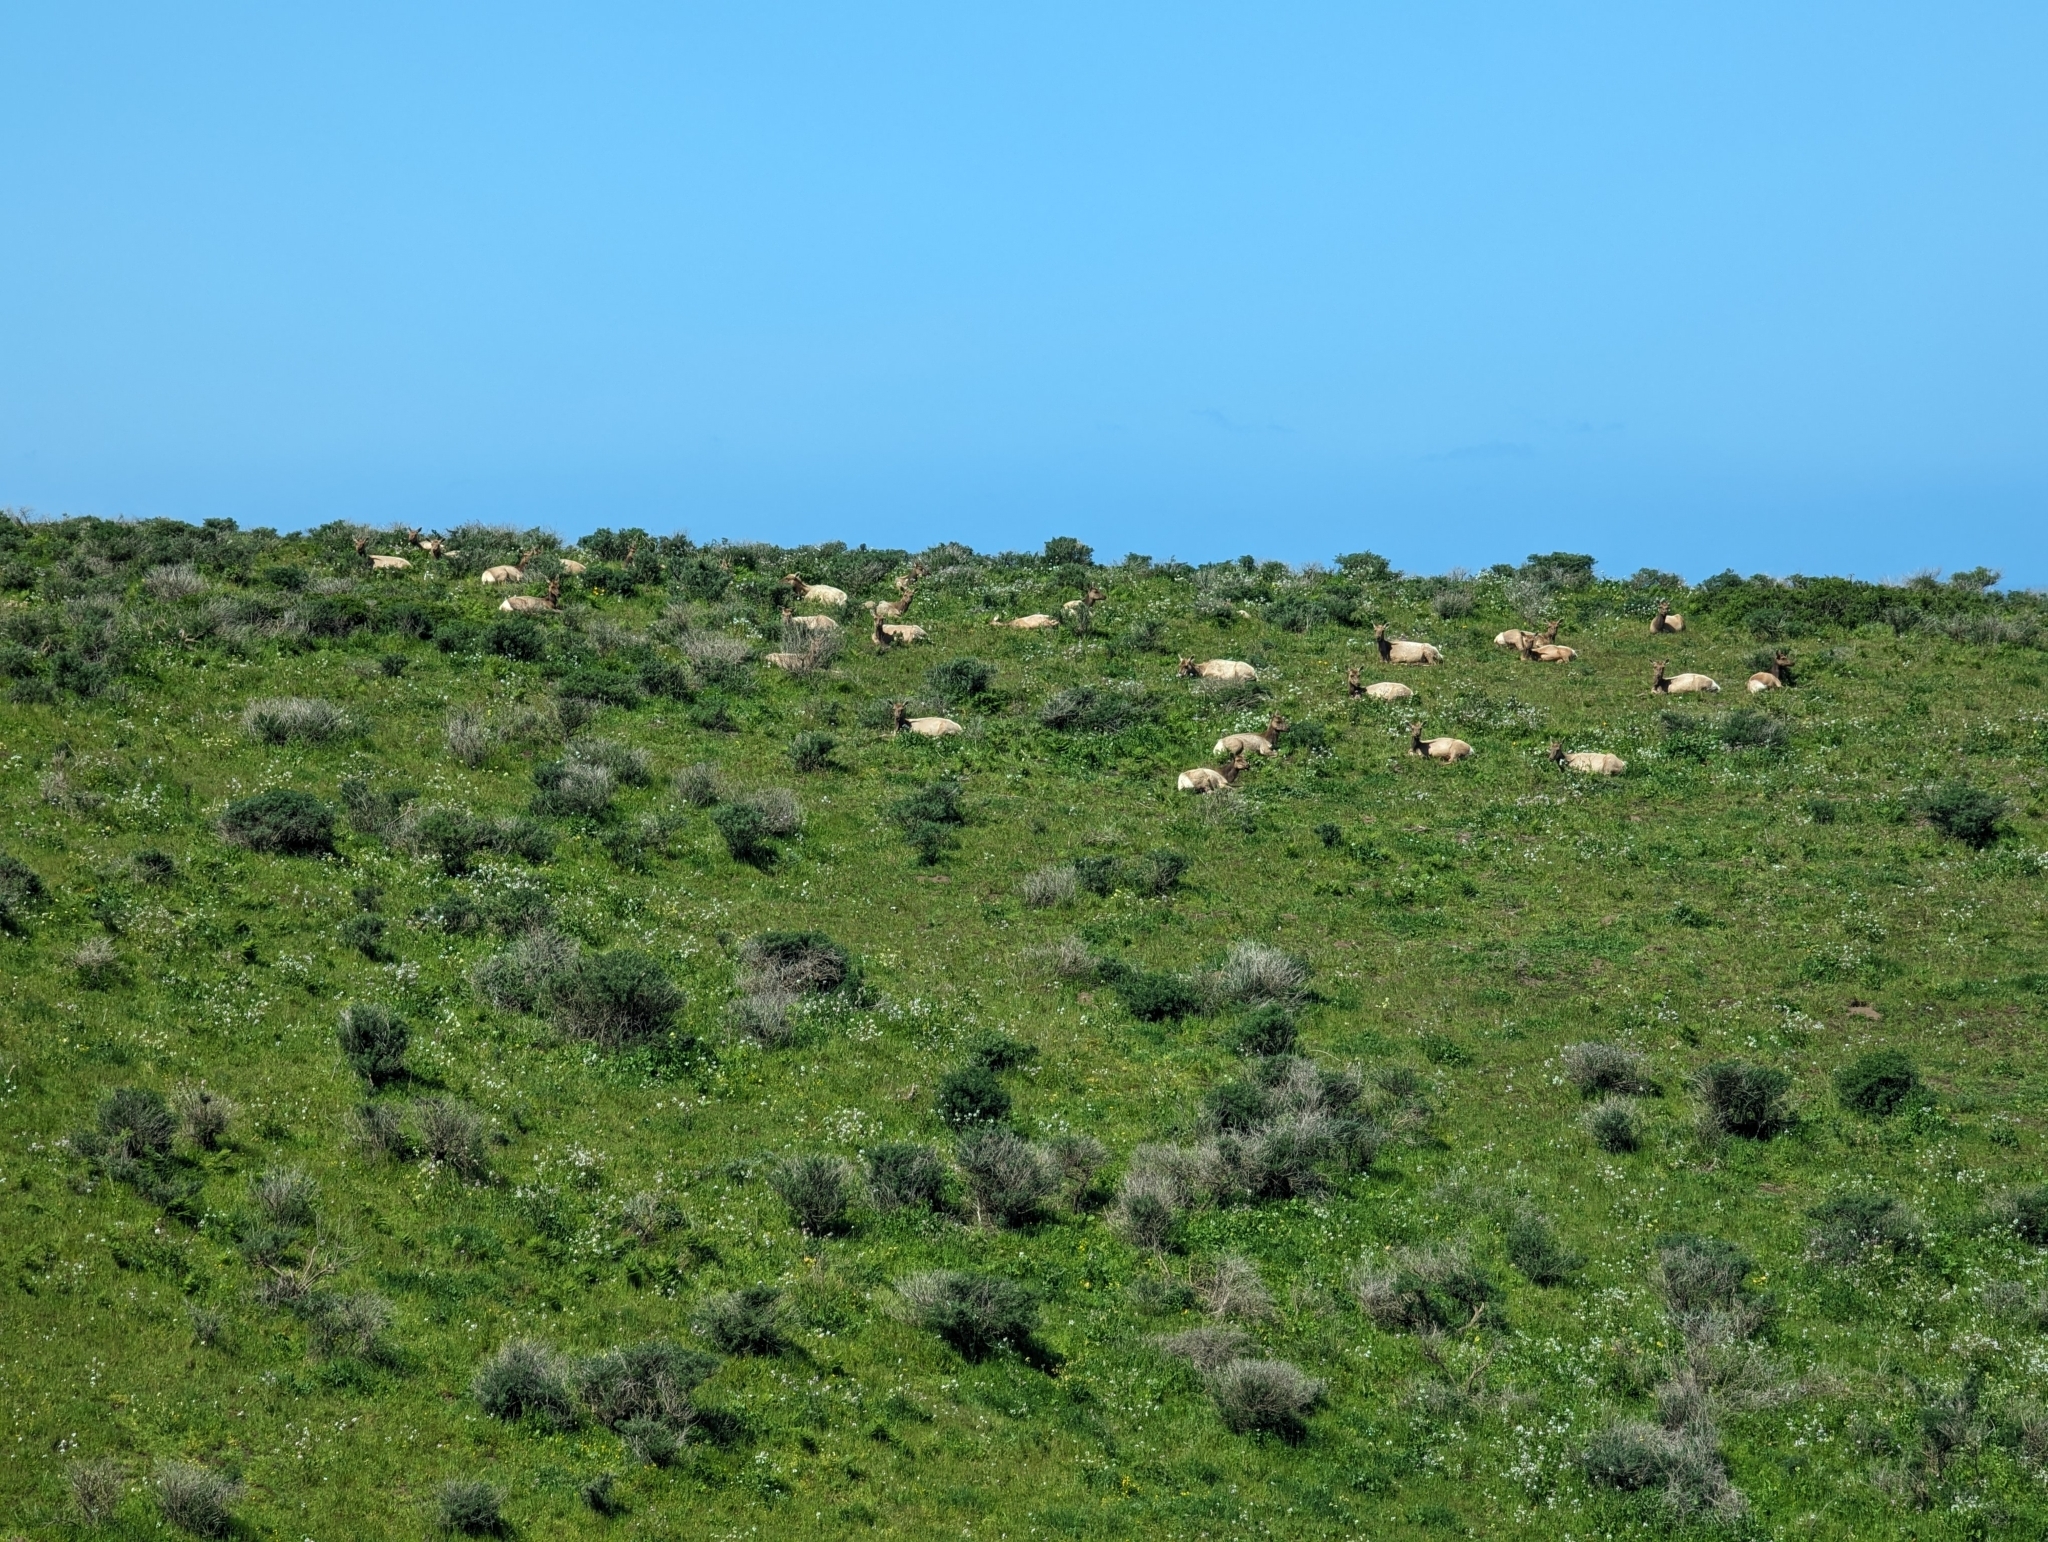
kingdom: Animalia
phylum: Chordata
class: Mammalia
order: Artiodactyla
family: Cervidae
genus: Cervus
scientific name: Cervus elaphus
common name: Red deer
